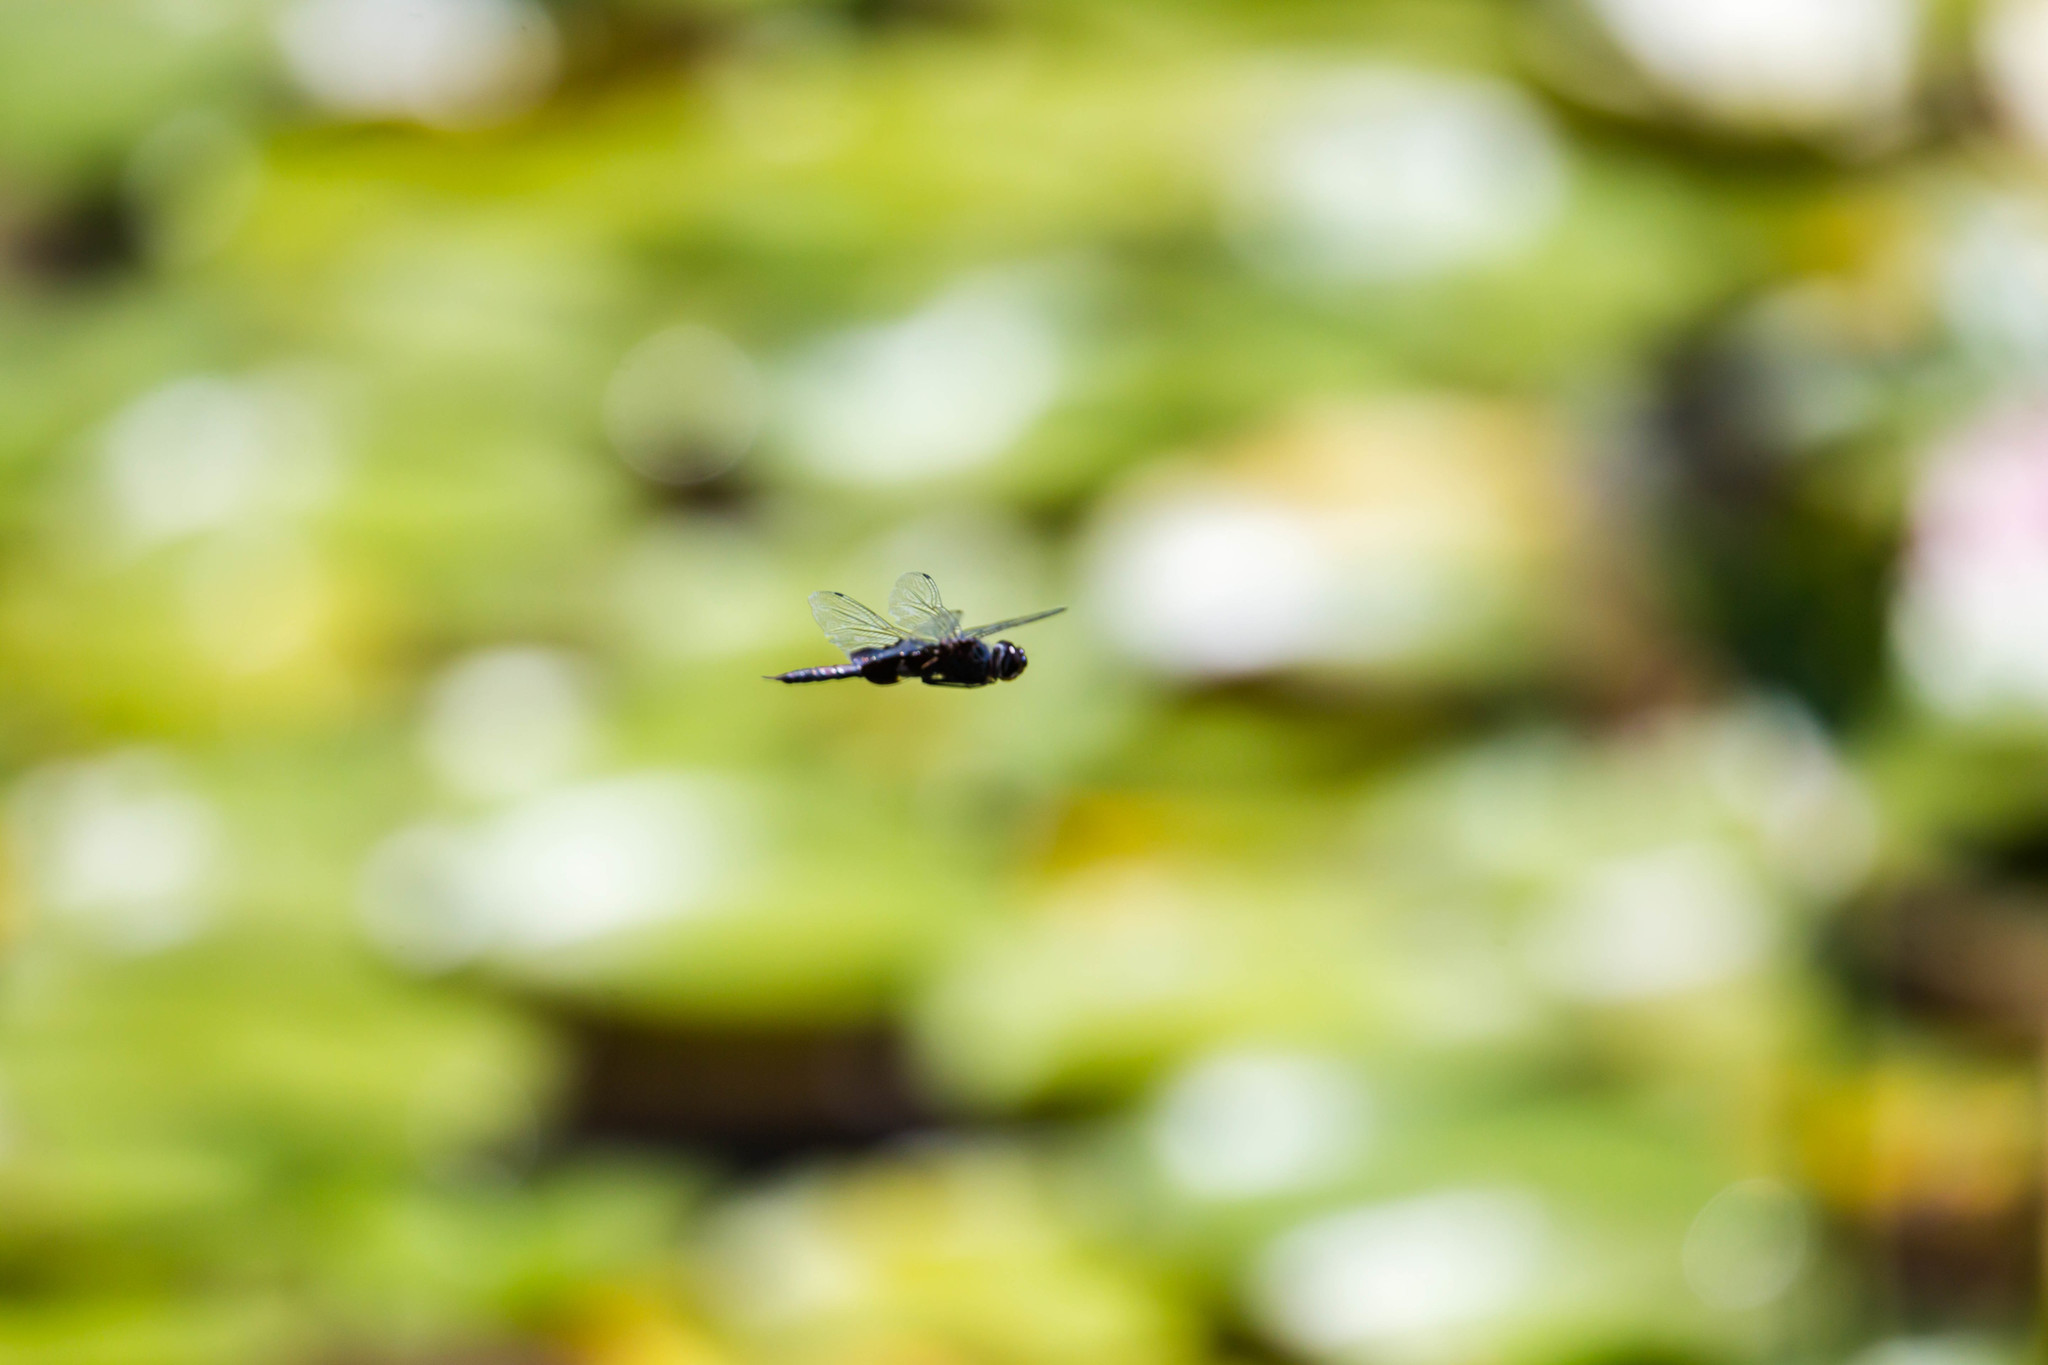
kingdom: Animalia
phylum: Arthropoda
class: Insecta
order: Odonata
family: Libellulidae
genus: Tramea
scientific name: Tramea lacerata
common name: Black saddlebags
